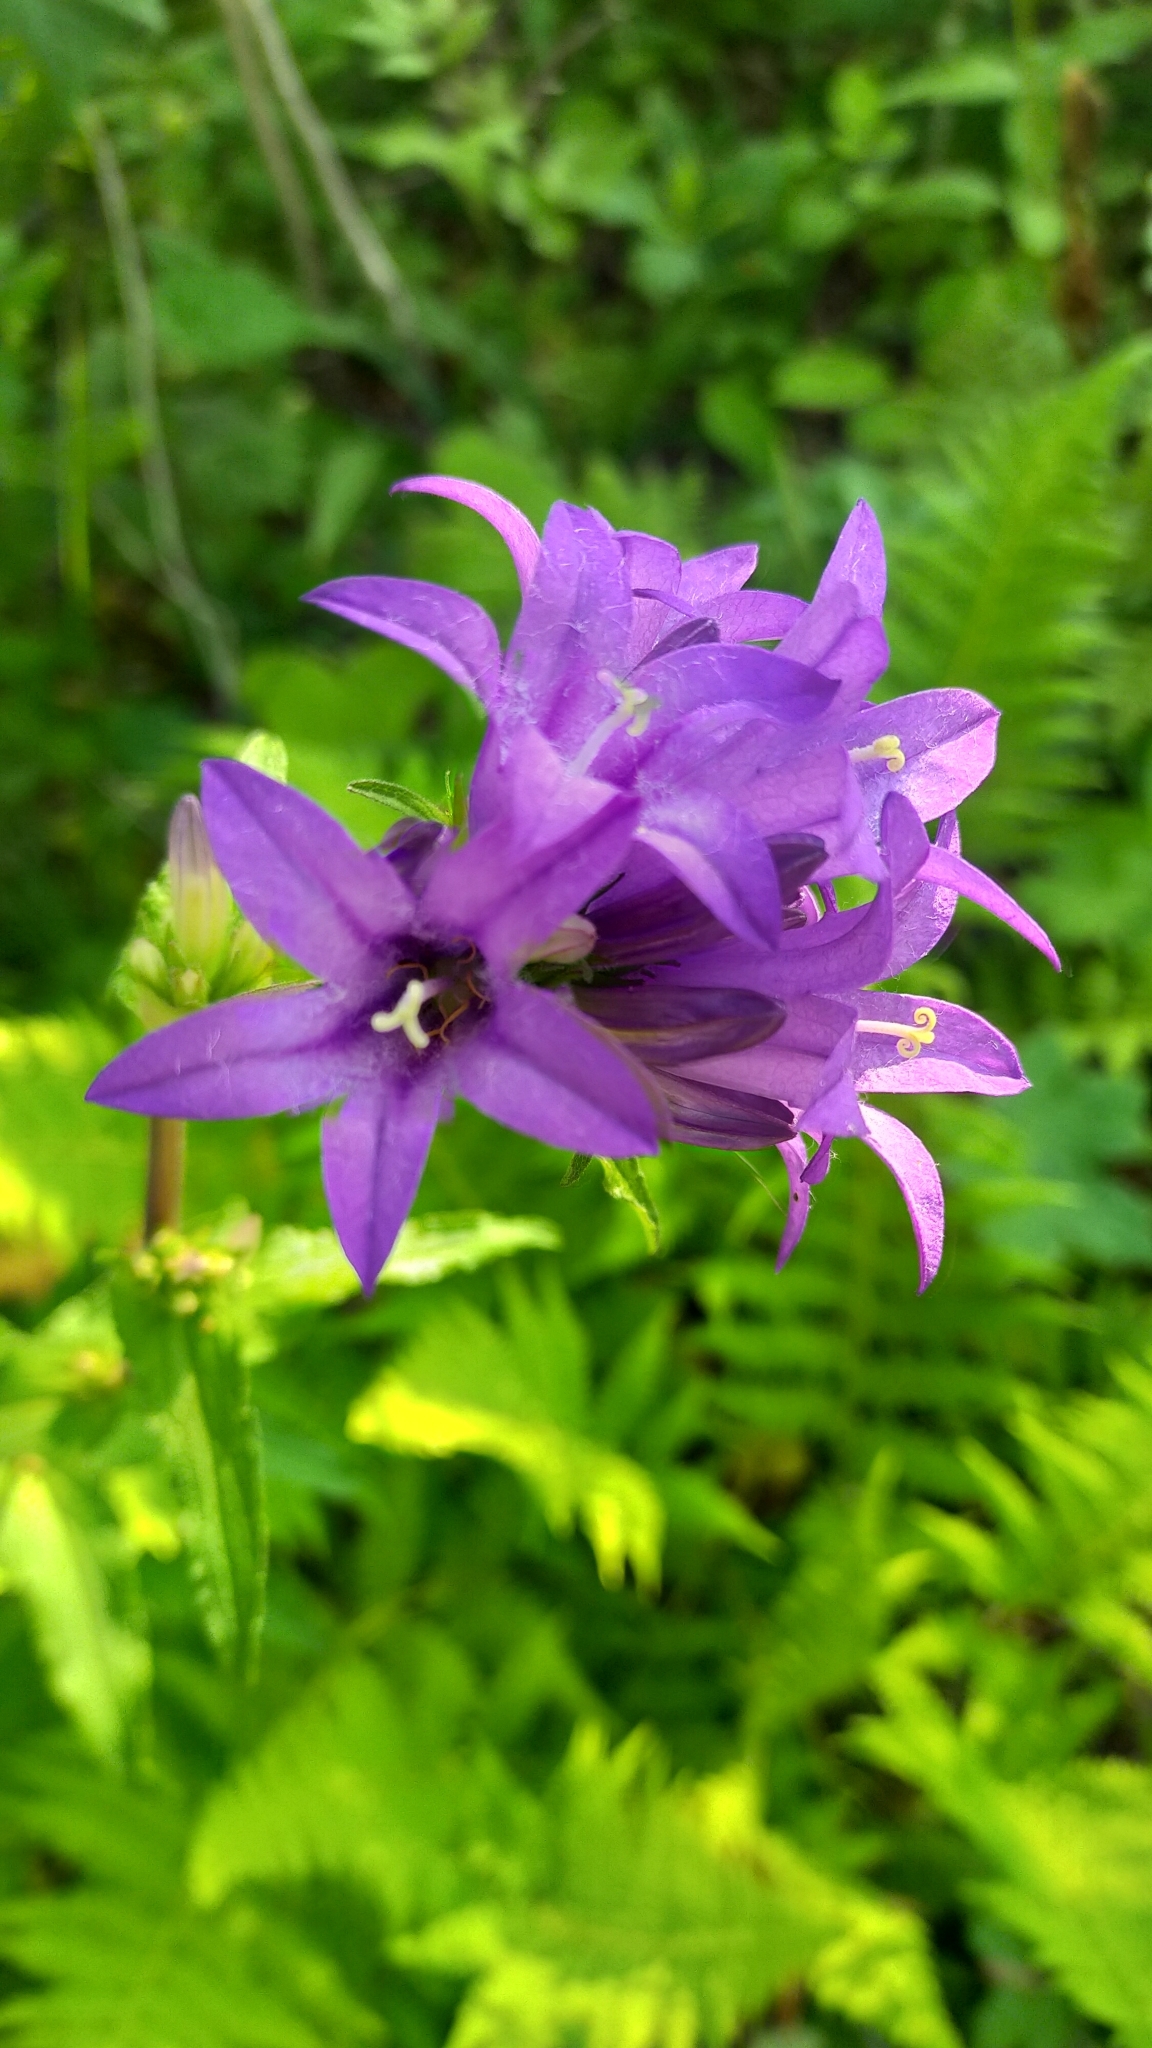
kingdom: Plantae
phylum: Tracheophyta
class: Magnoliopsida
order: Asterales
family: Campanulaceae
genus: Campanula
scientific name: Campanula glomerata
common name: Clustered bellflower
